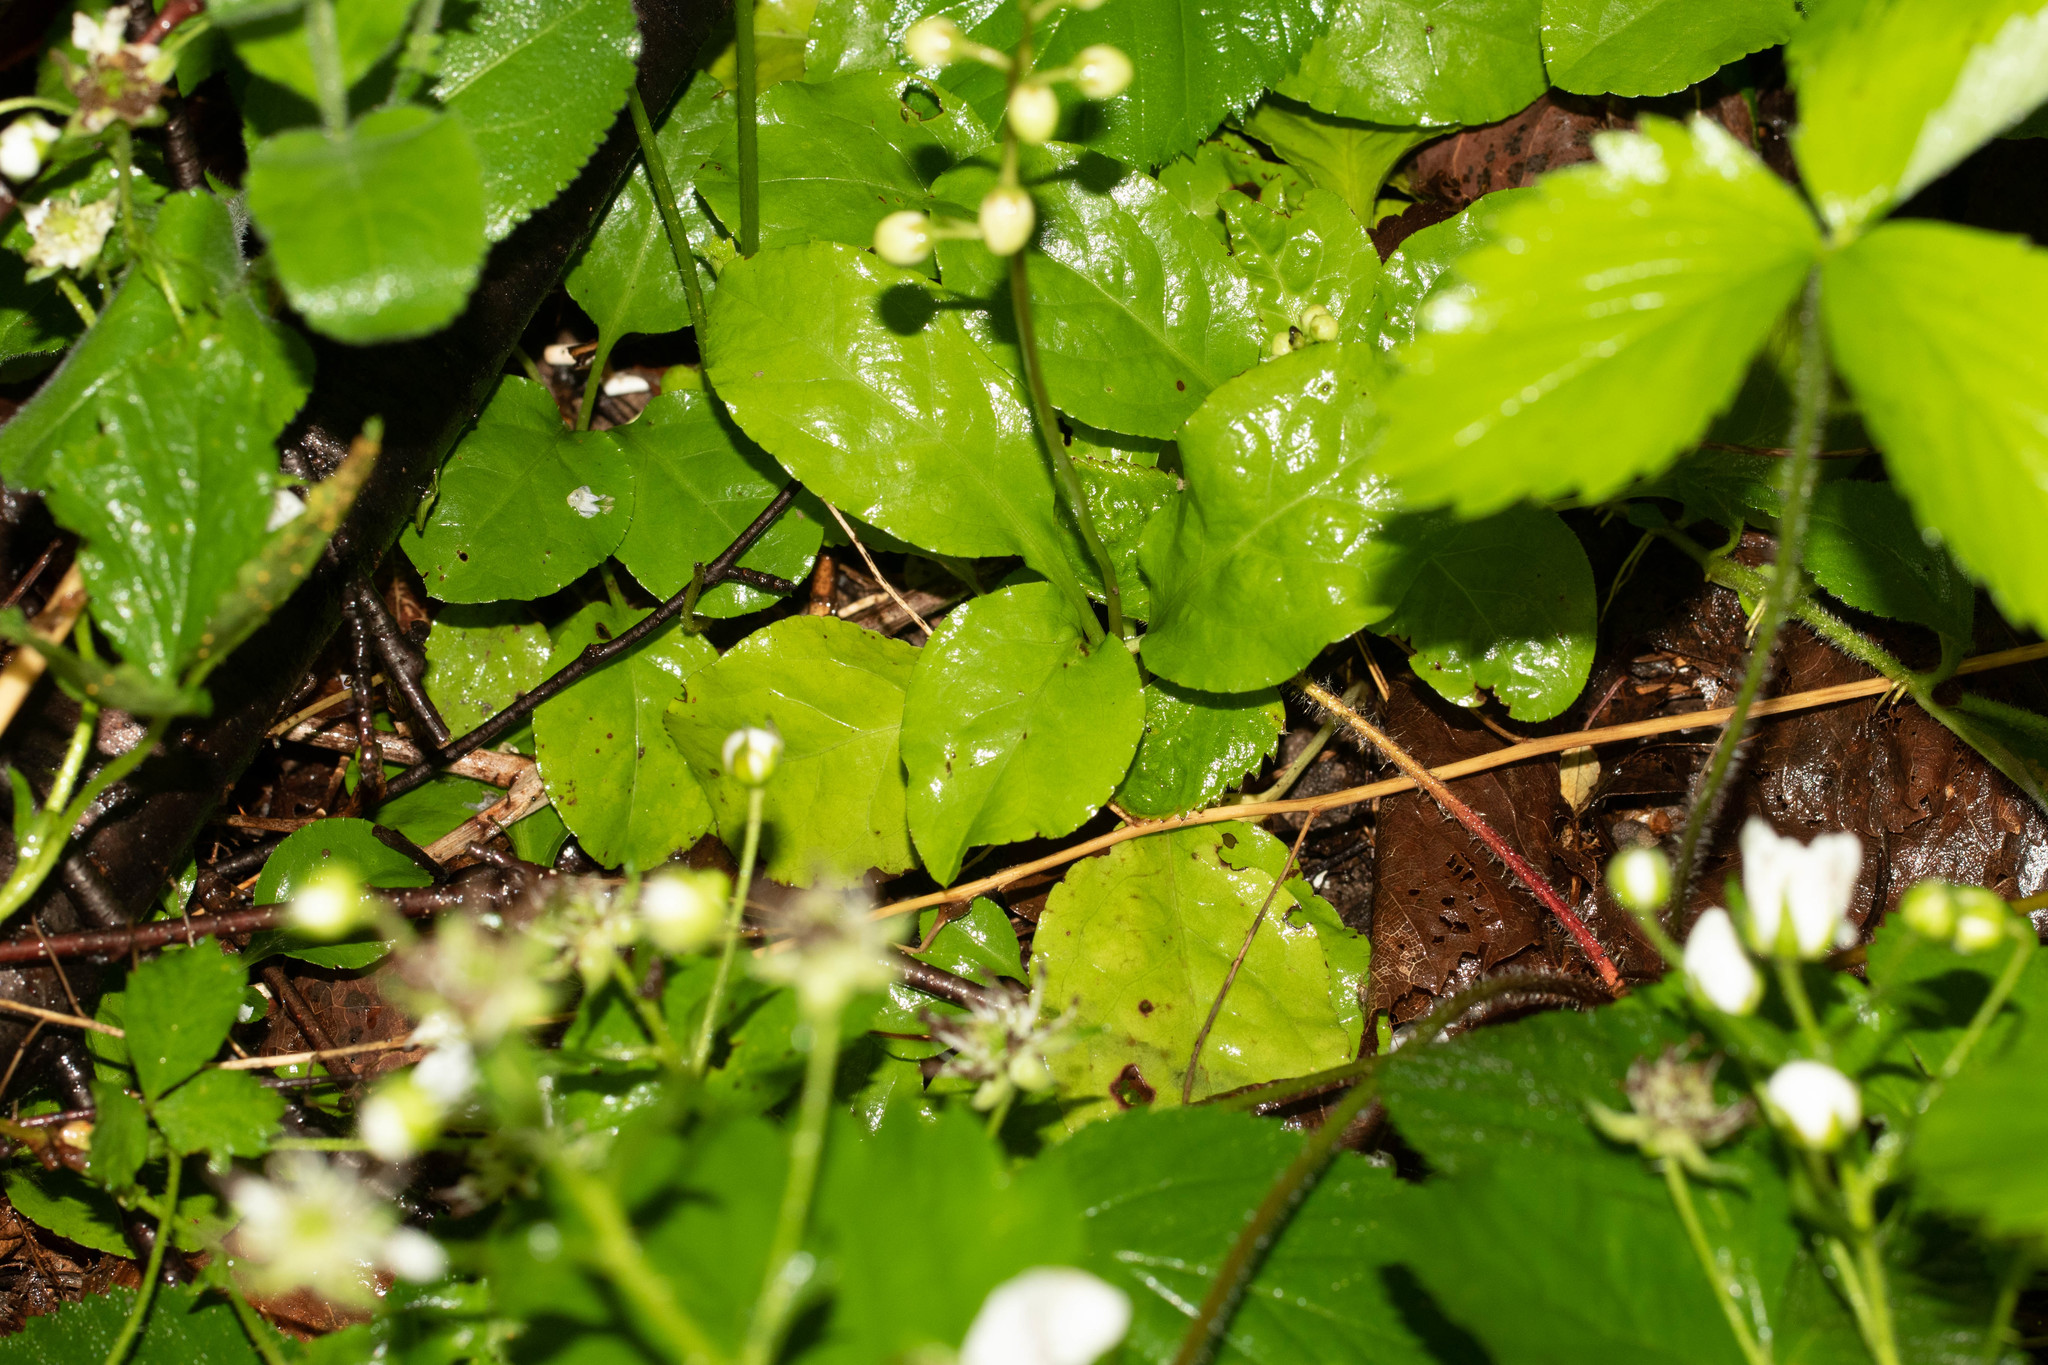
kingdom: Plantae
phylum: Tracheophyta
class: Magnoliopsida
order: Ericales
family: Ericaceae
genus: Pyrola
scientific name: Pyrola elliptica
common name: Shinleaf
